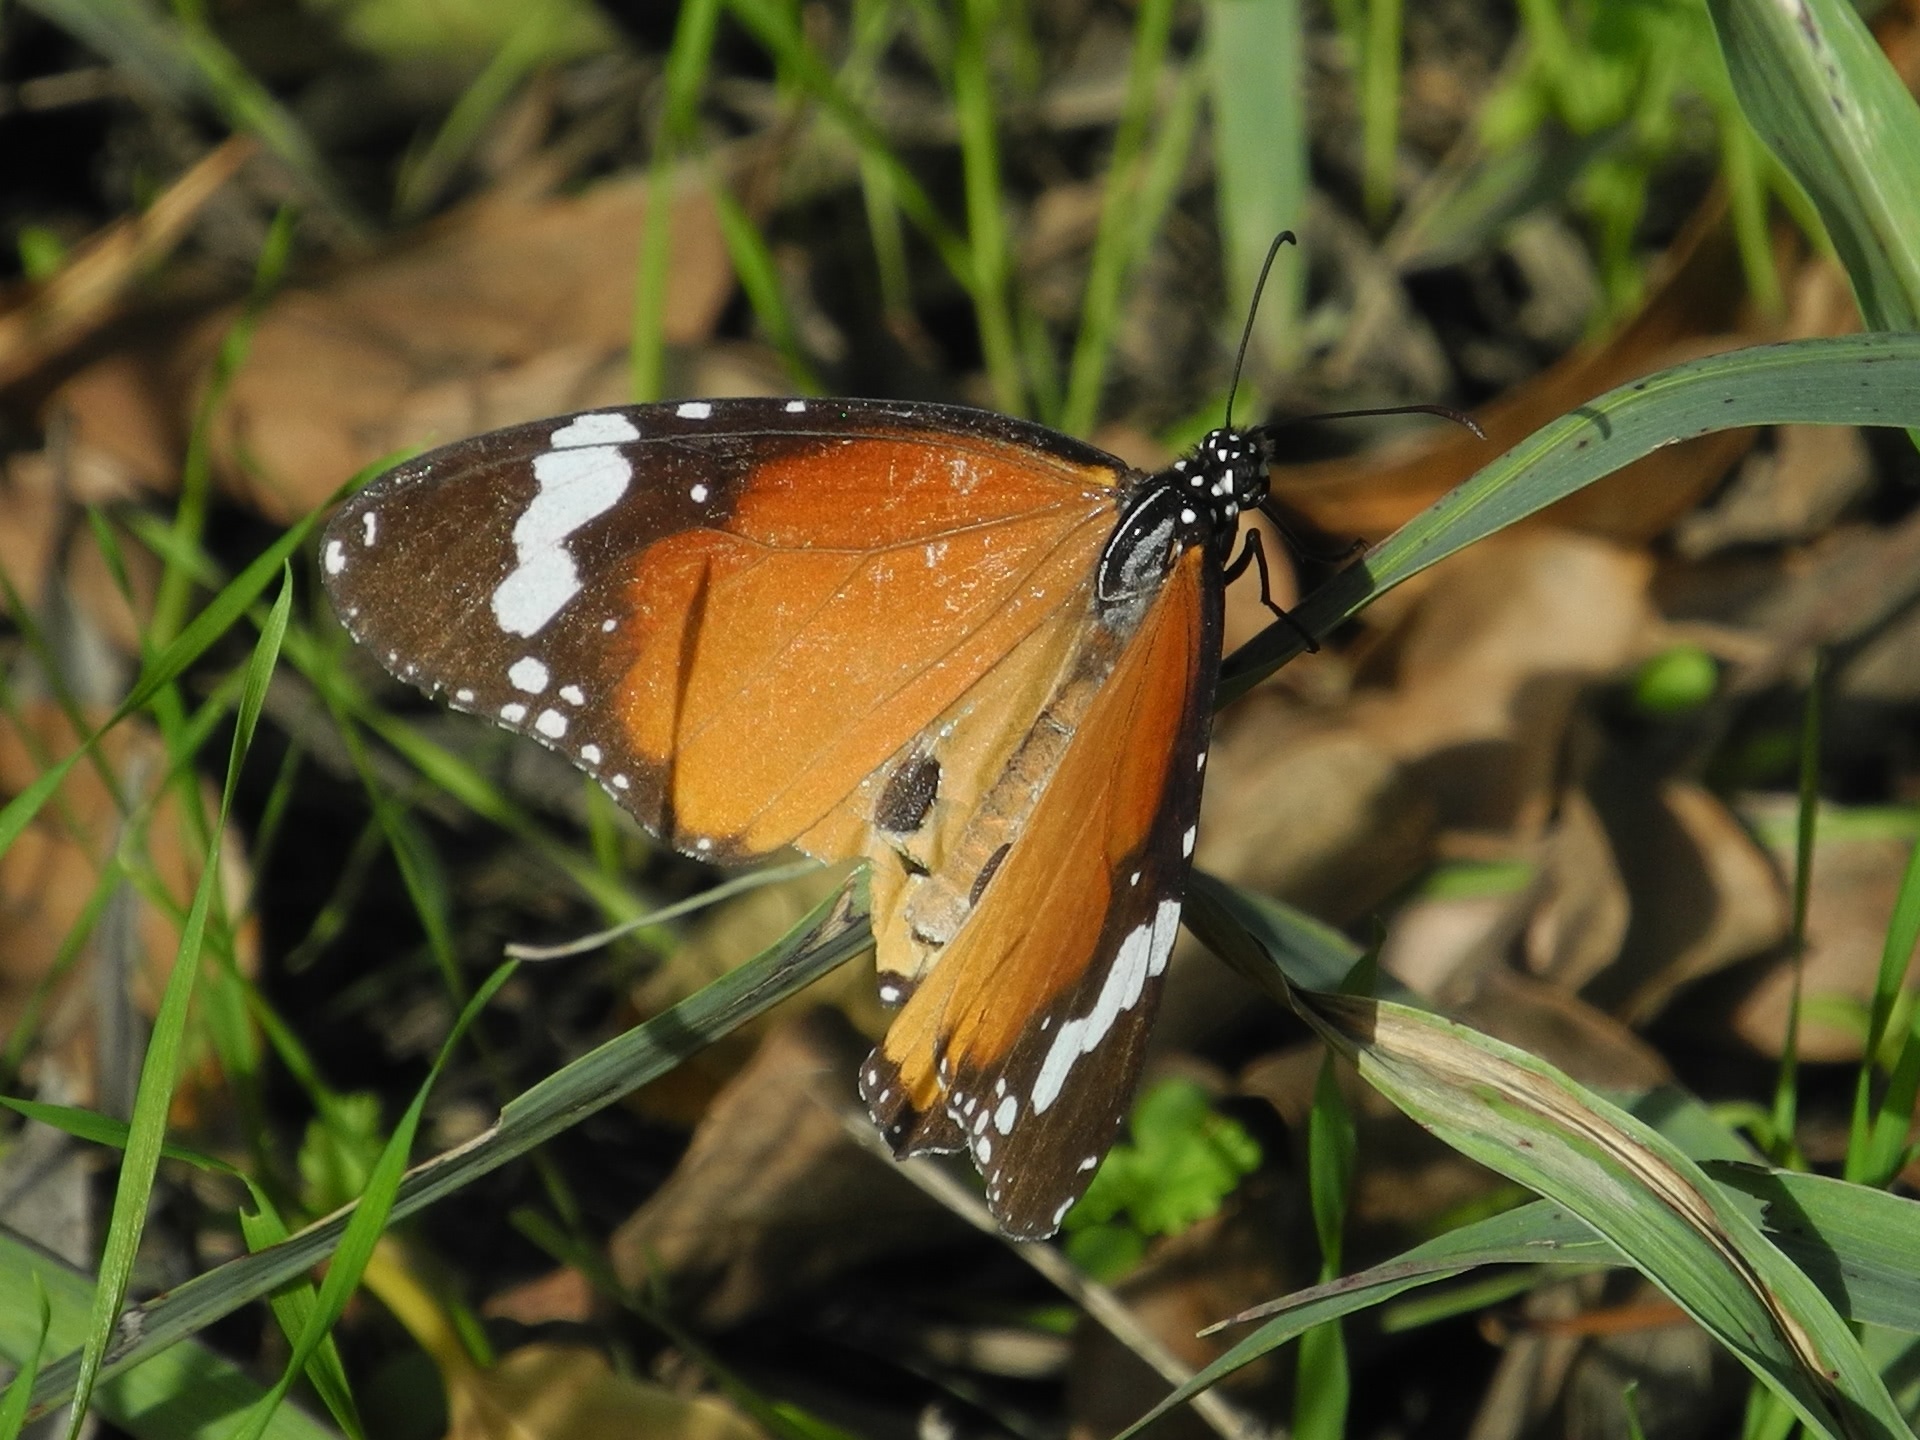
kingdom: Animalia
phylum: Arthropoda
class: Insecta
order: Lepidoptera
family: Nymphalidae
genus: Danaus
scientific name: Danaus chrysippus
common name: Plain tiger
